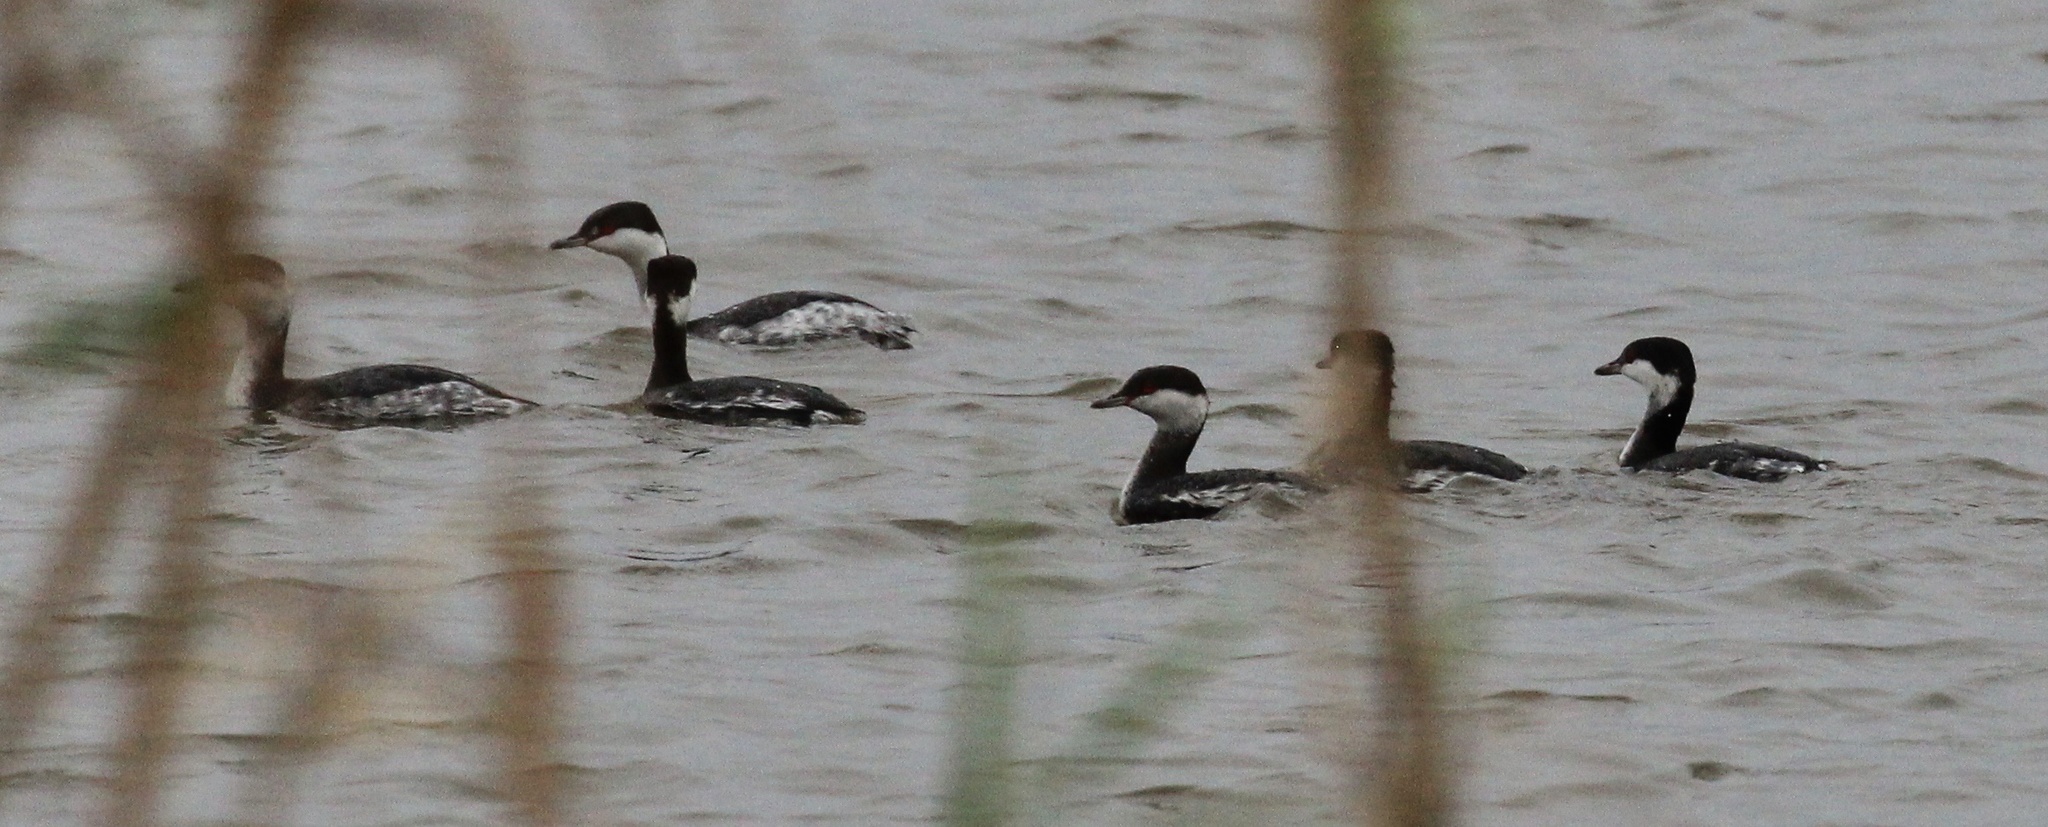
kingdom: Animalia
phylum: Chordata
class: Aves
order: Podicipediformes
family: Podicipedidae
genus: Podiceps
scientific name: Podiceps auritus
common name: Horned grebe
